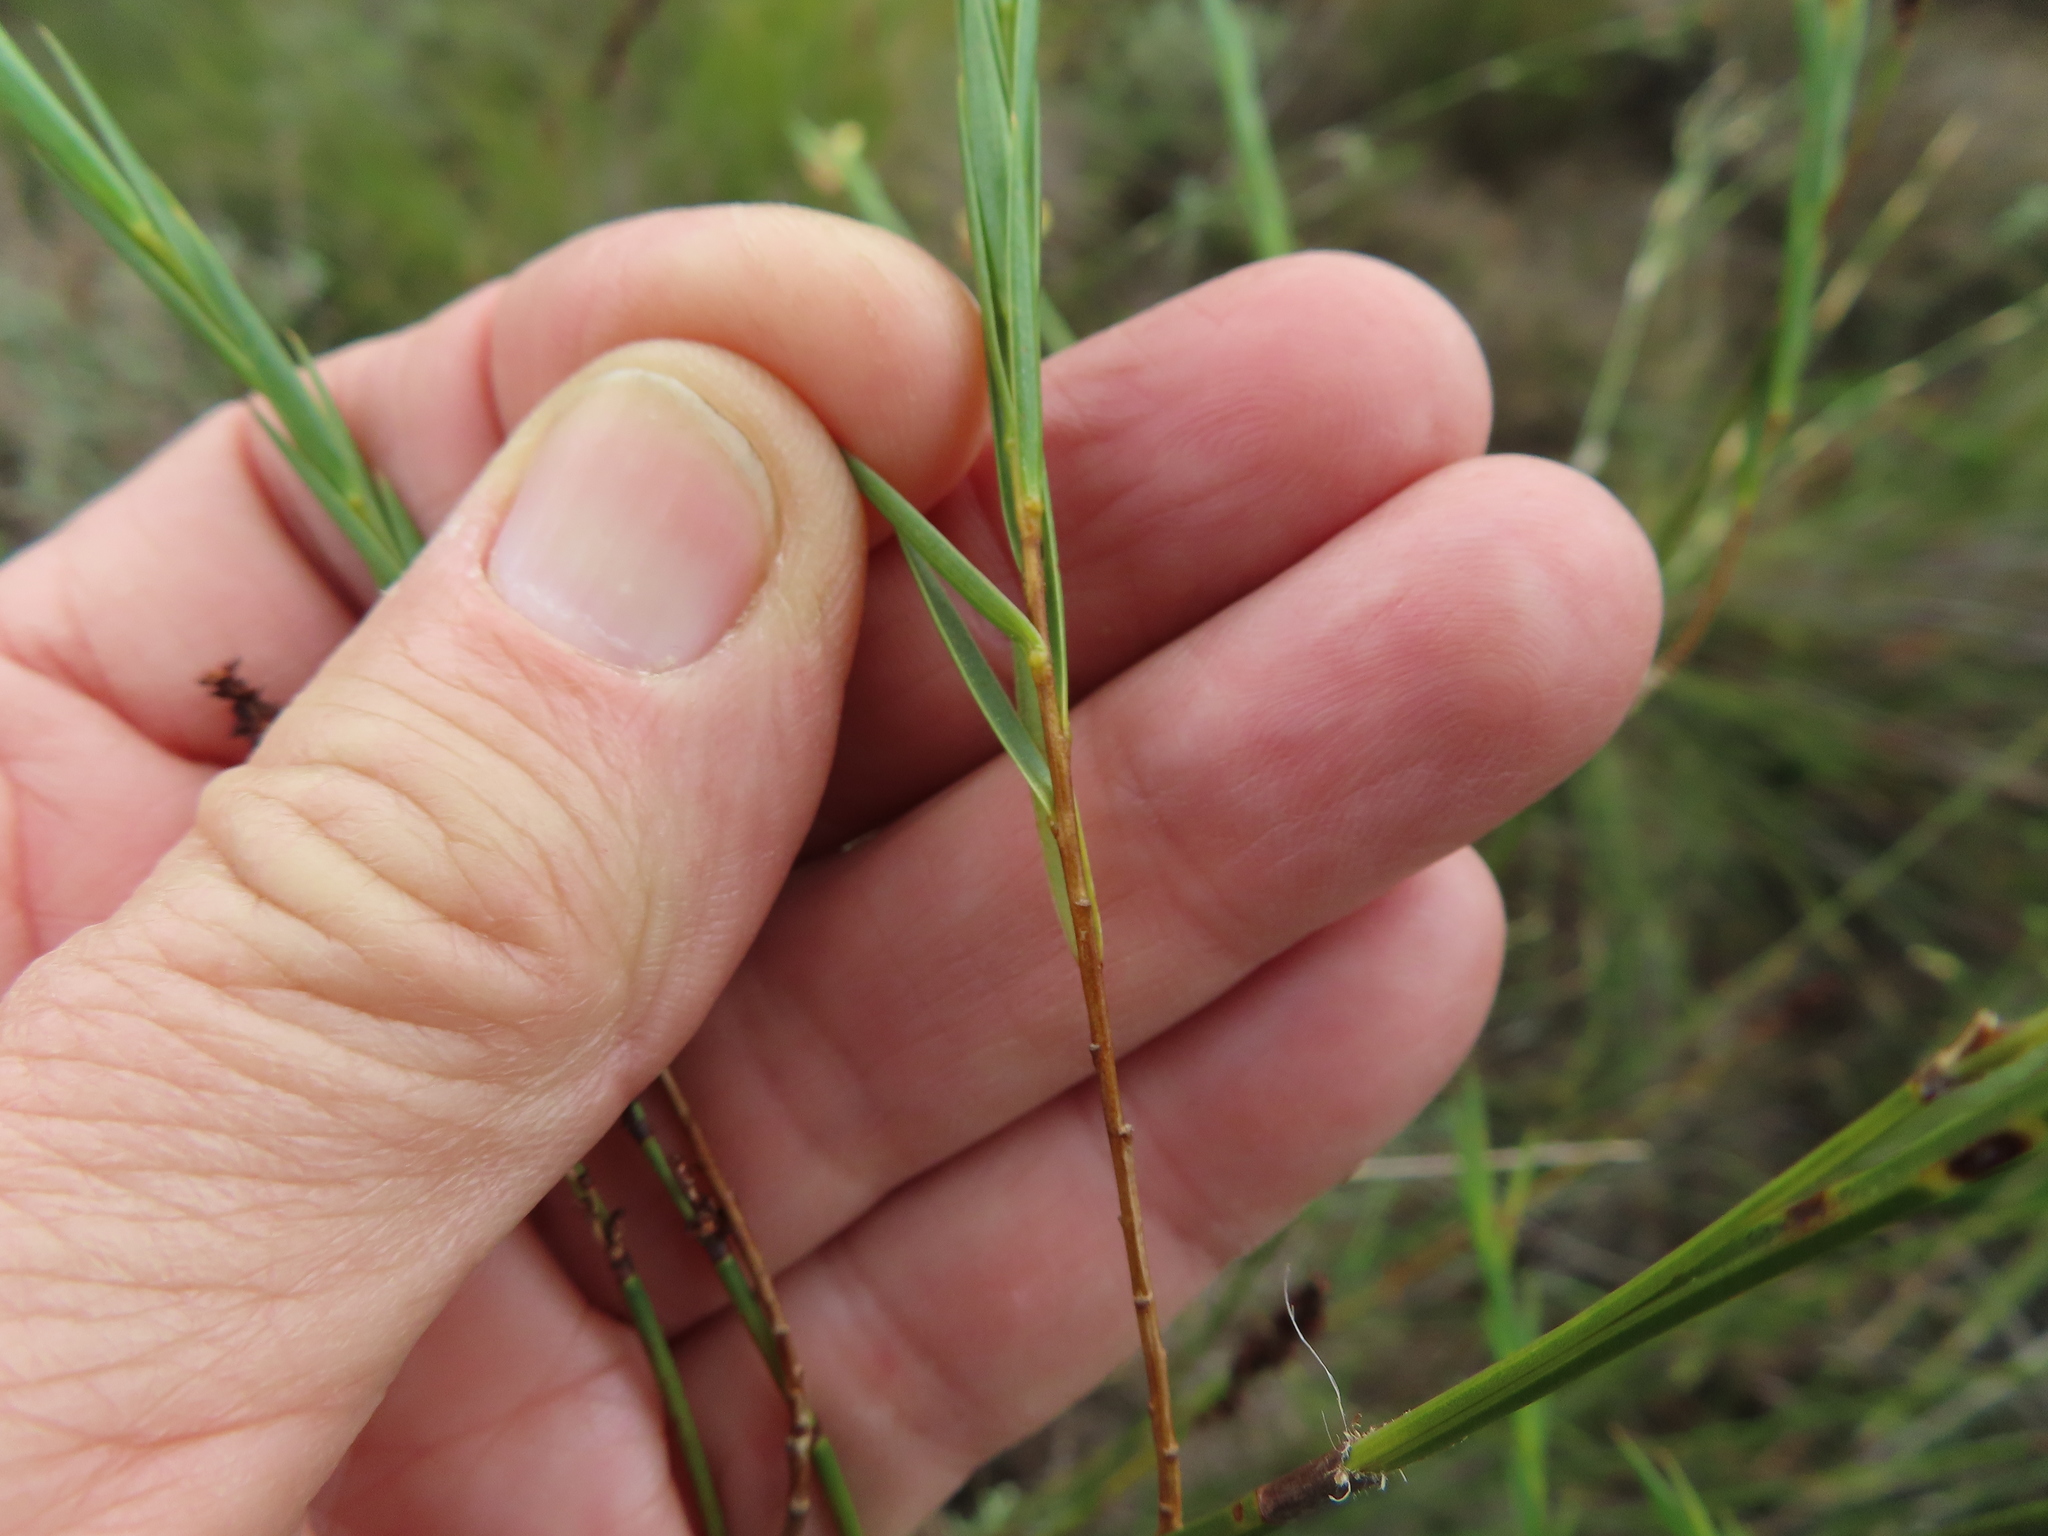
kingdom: Plantae
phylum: Tracheophyta
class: Magnoliopsida
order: Fabales
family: Fabaceae
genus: Aspalathus
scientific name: Aspalathus angustifolia
